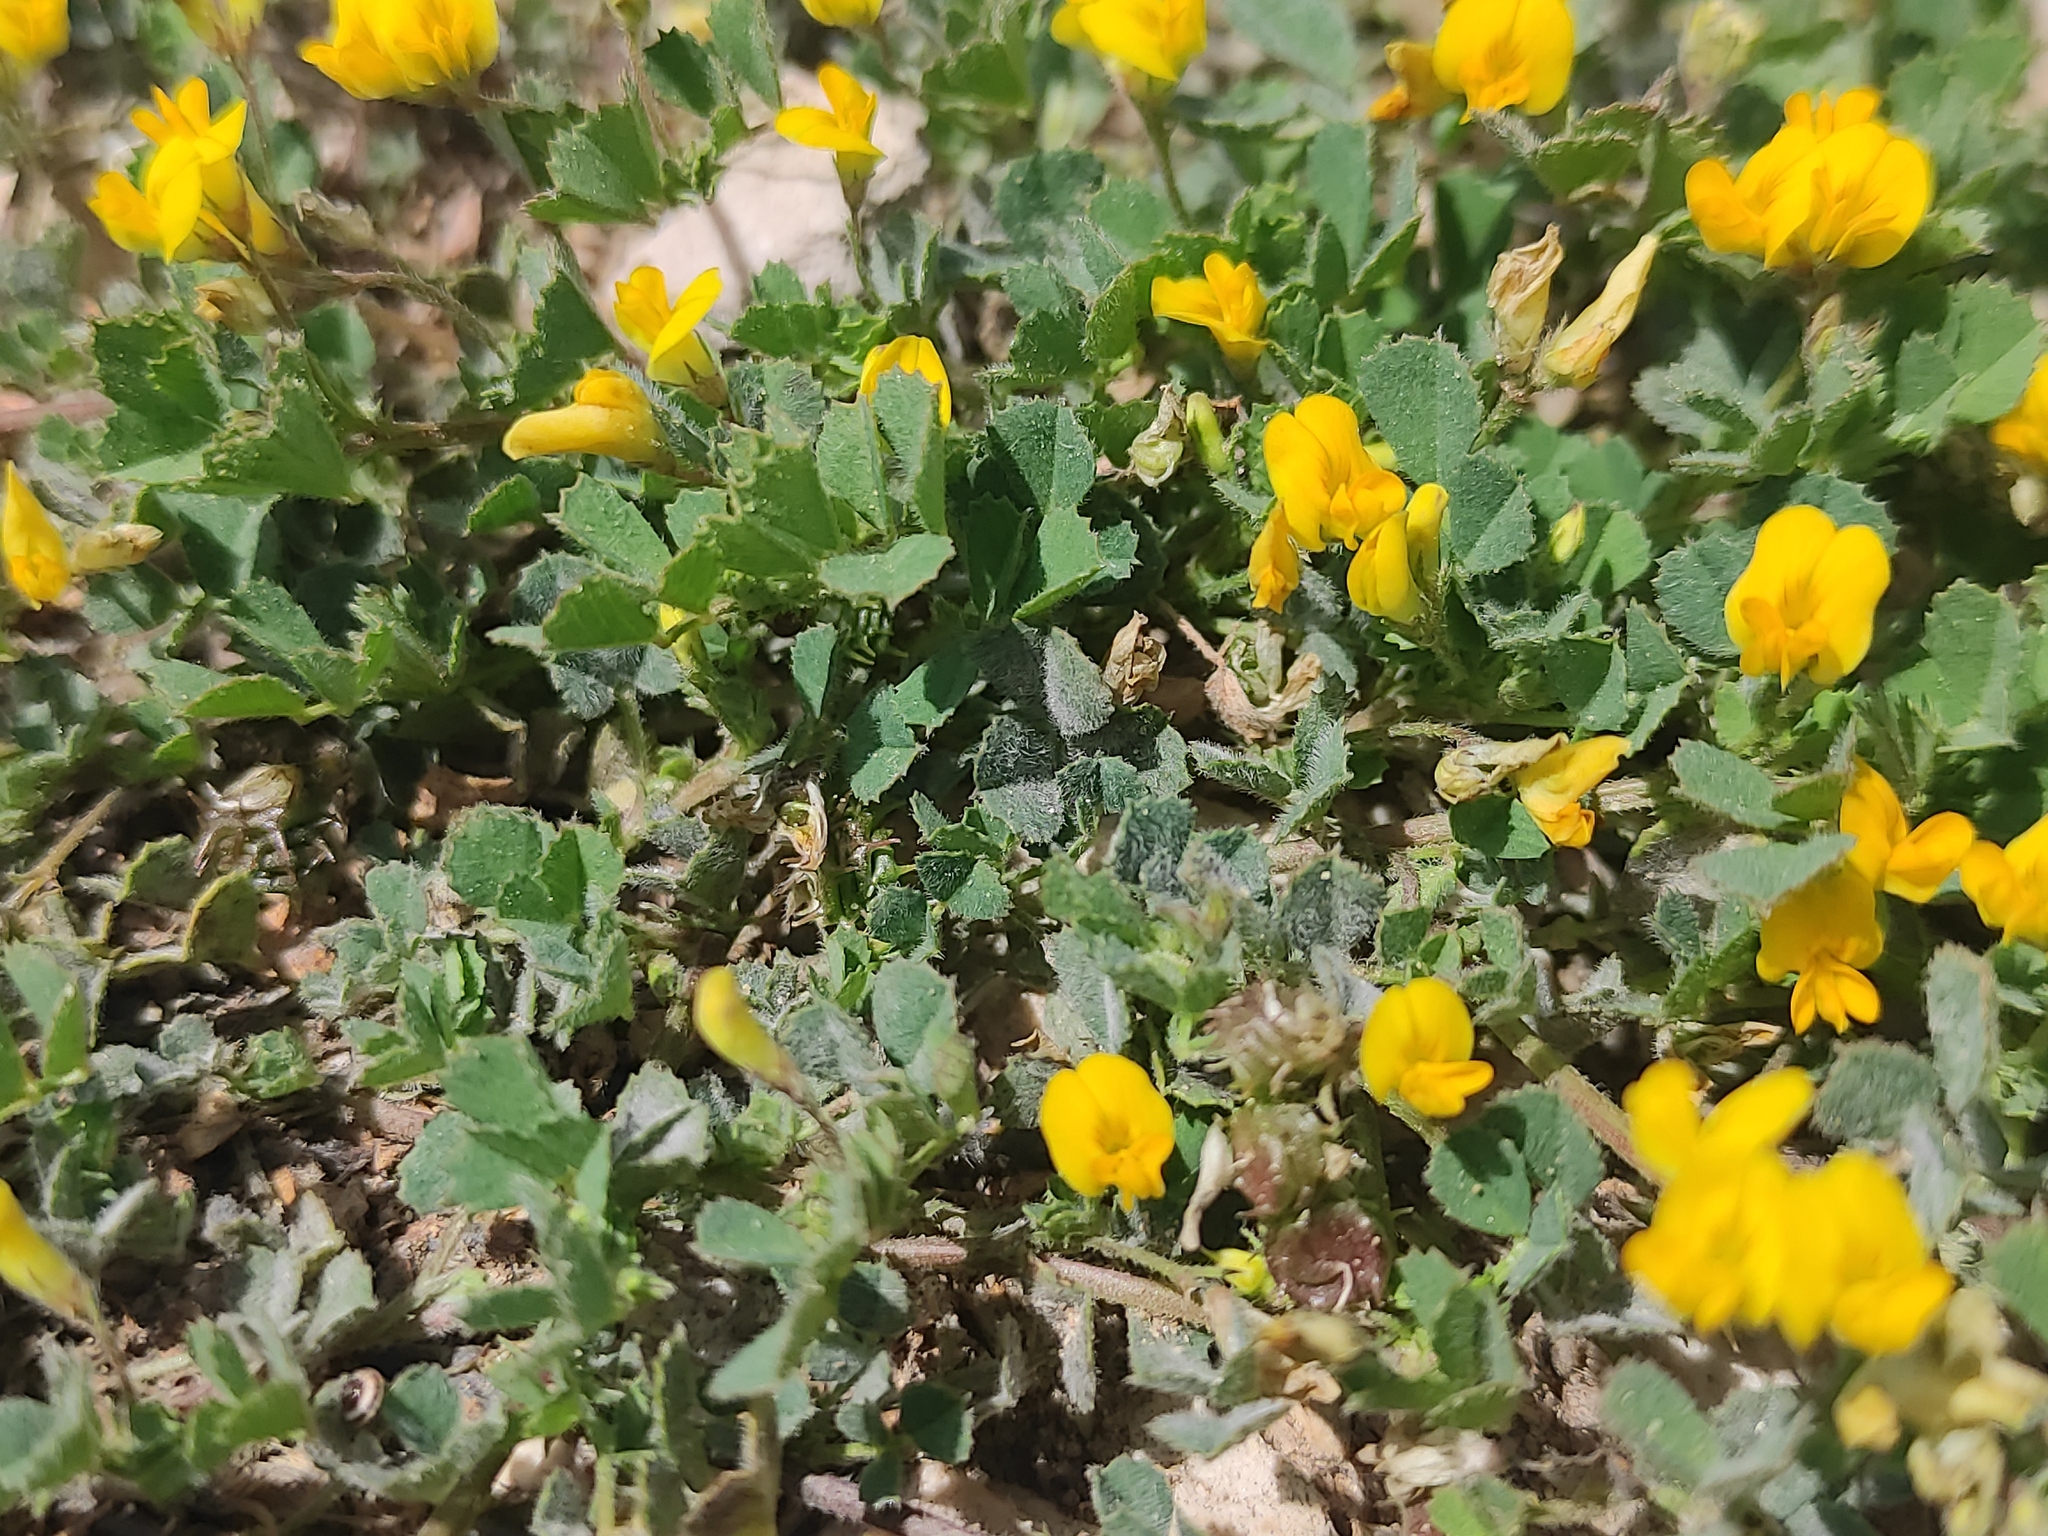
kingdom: Plantae
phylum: Tracheophyta
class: Magnoliopsida
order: Fabales
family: Fabaceae
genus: Medicago
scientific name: Medicago littoralis
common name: Shore medick
